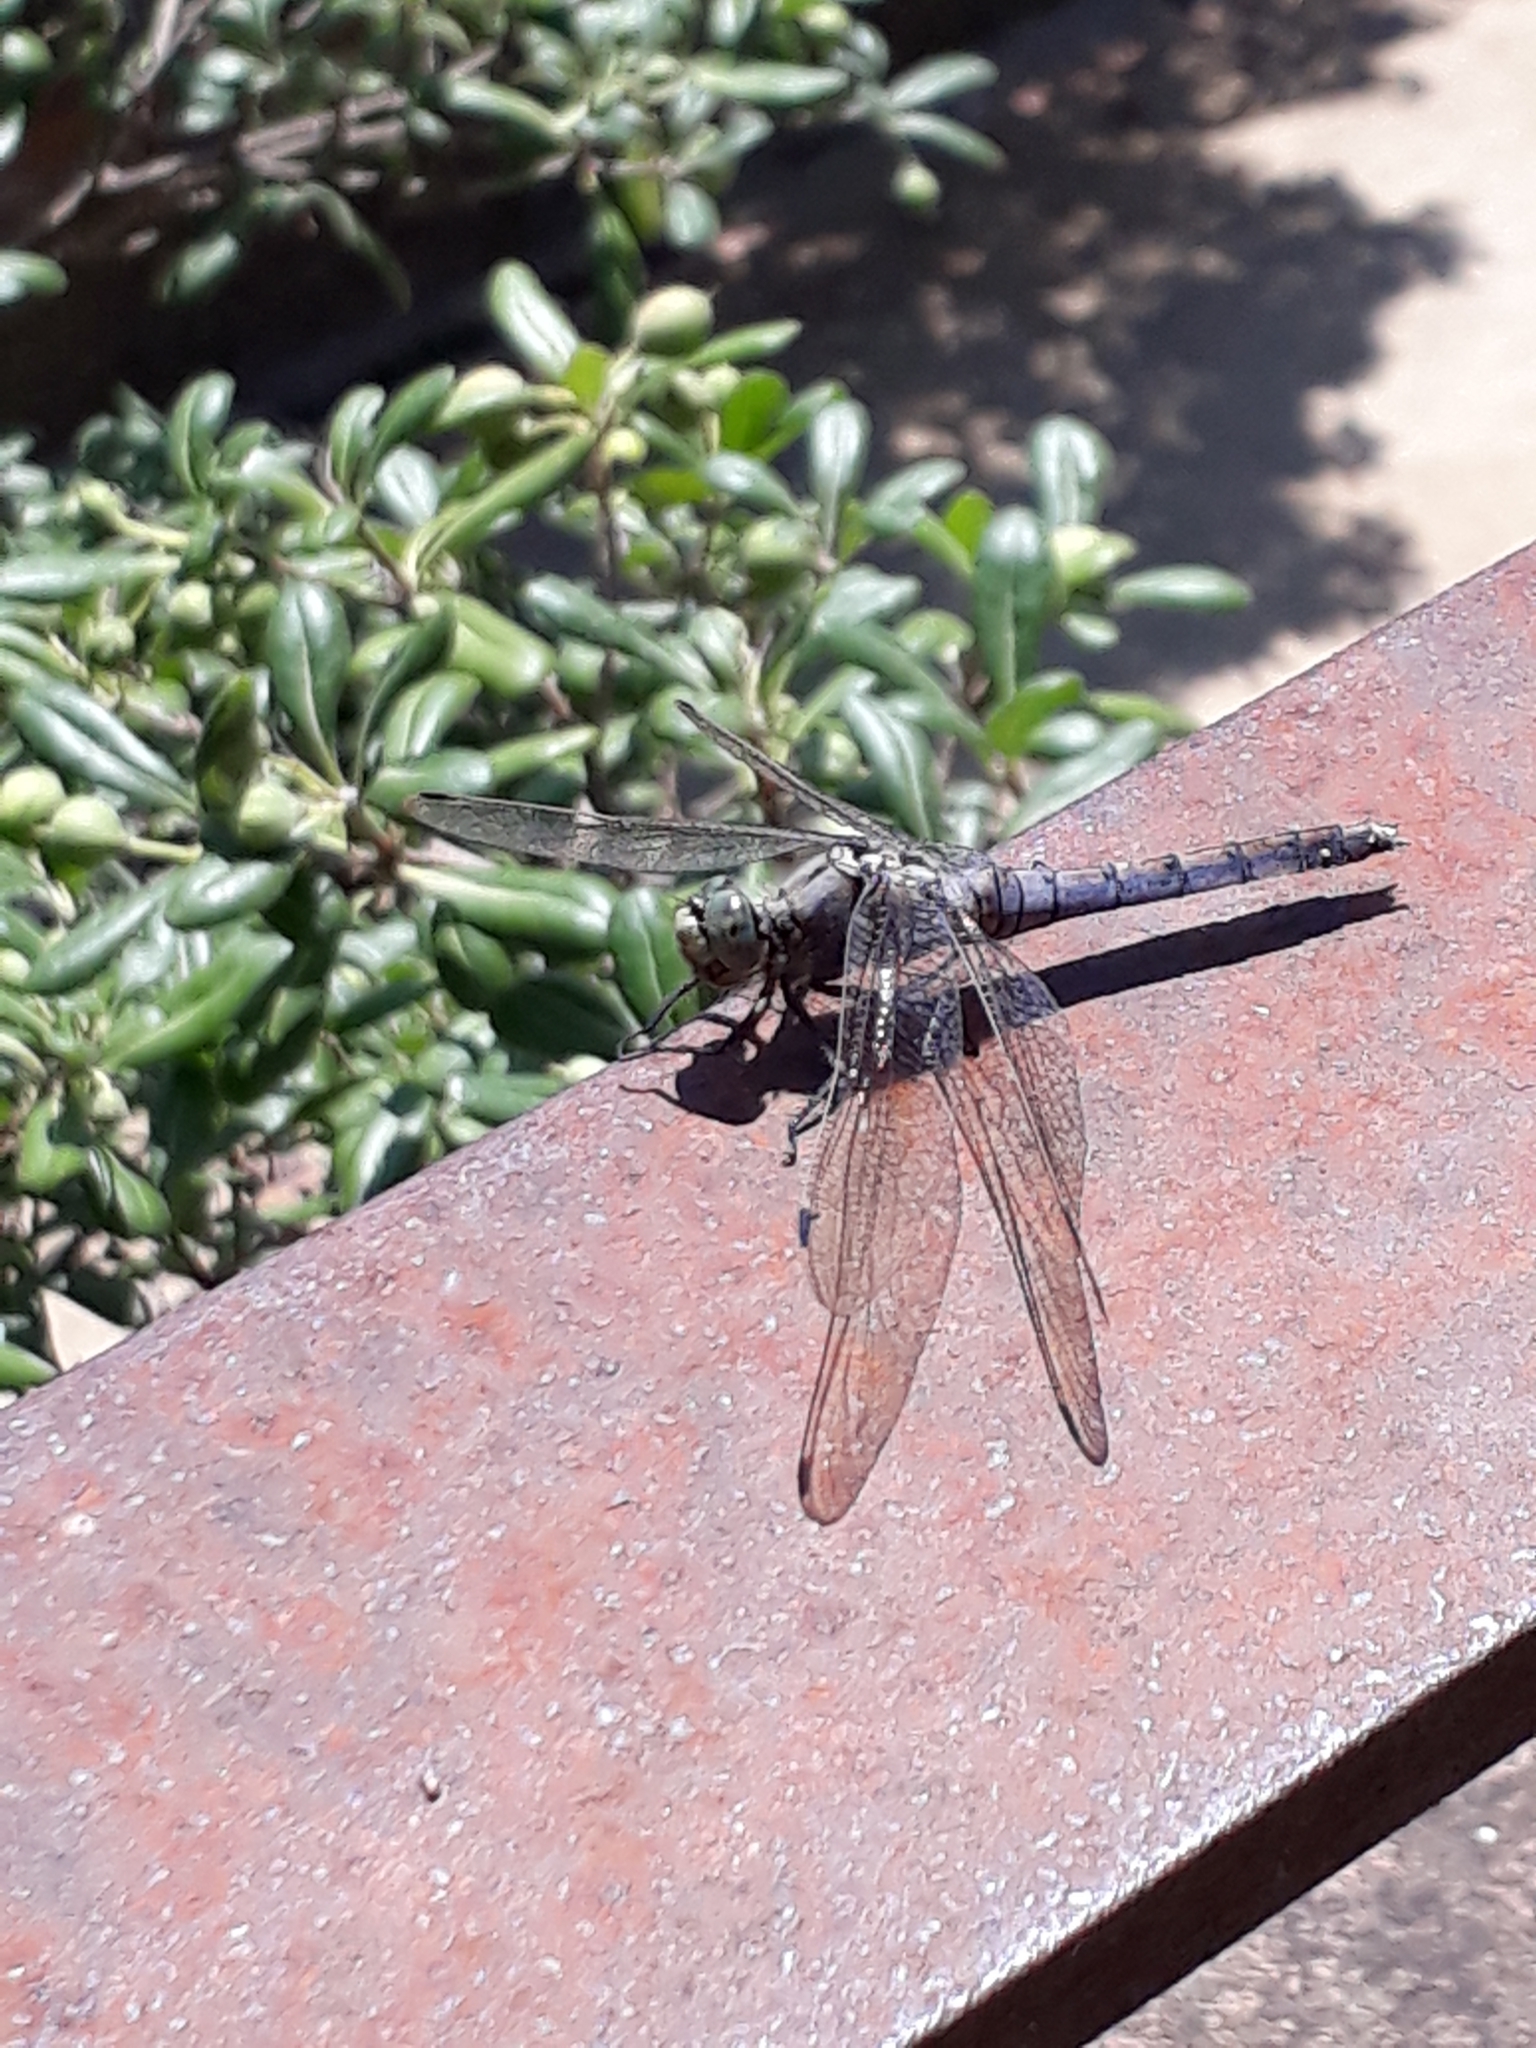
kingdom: Animalia
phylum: Arthropoda
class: Insecta
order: Odonata
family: Libellulidae
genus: Orthetrum
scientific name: Orthetrum cancellatum
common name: Black-tailed skimmer
